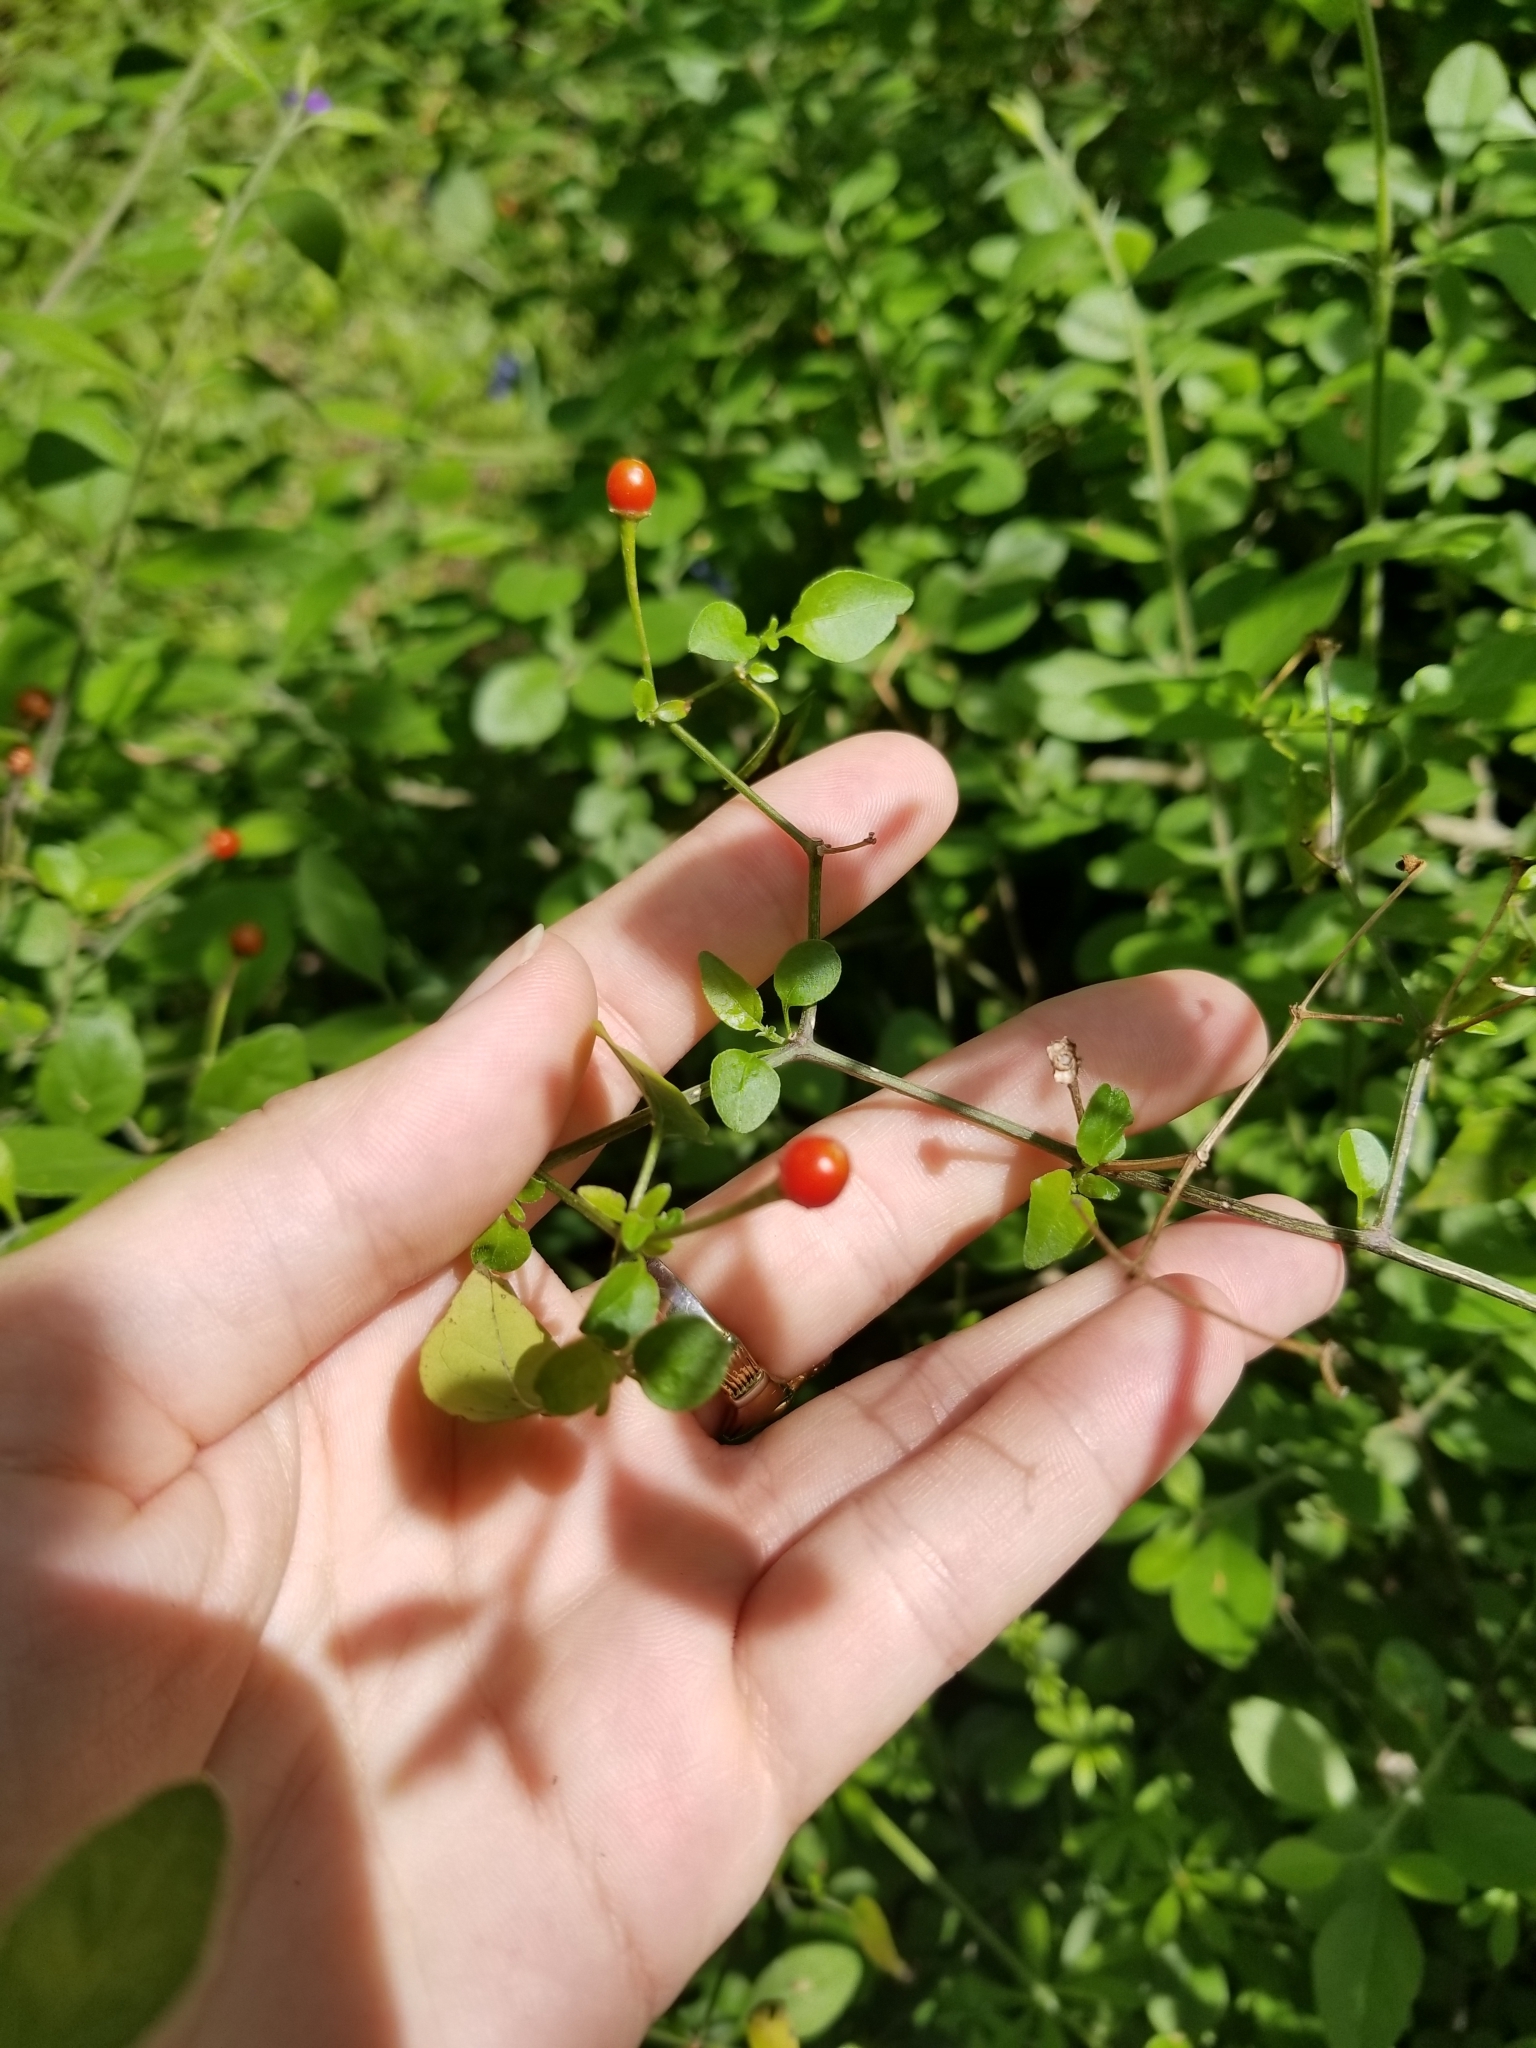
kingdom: Plantae
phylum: Tracheophyta
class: Magnoliopsida
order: Solanales
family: Solanaceae
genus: Capsicum
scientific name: Capsicum annuum
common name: Sweet pepper
